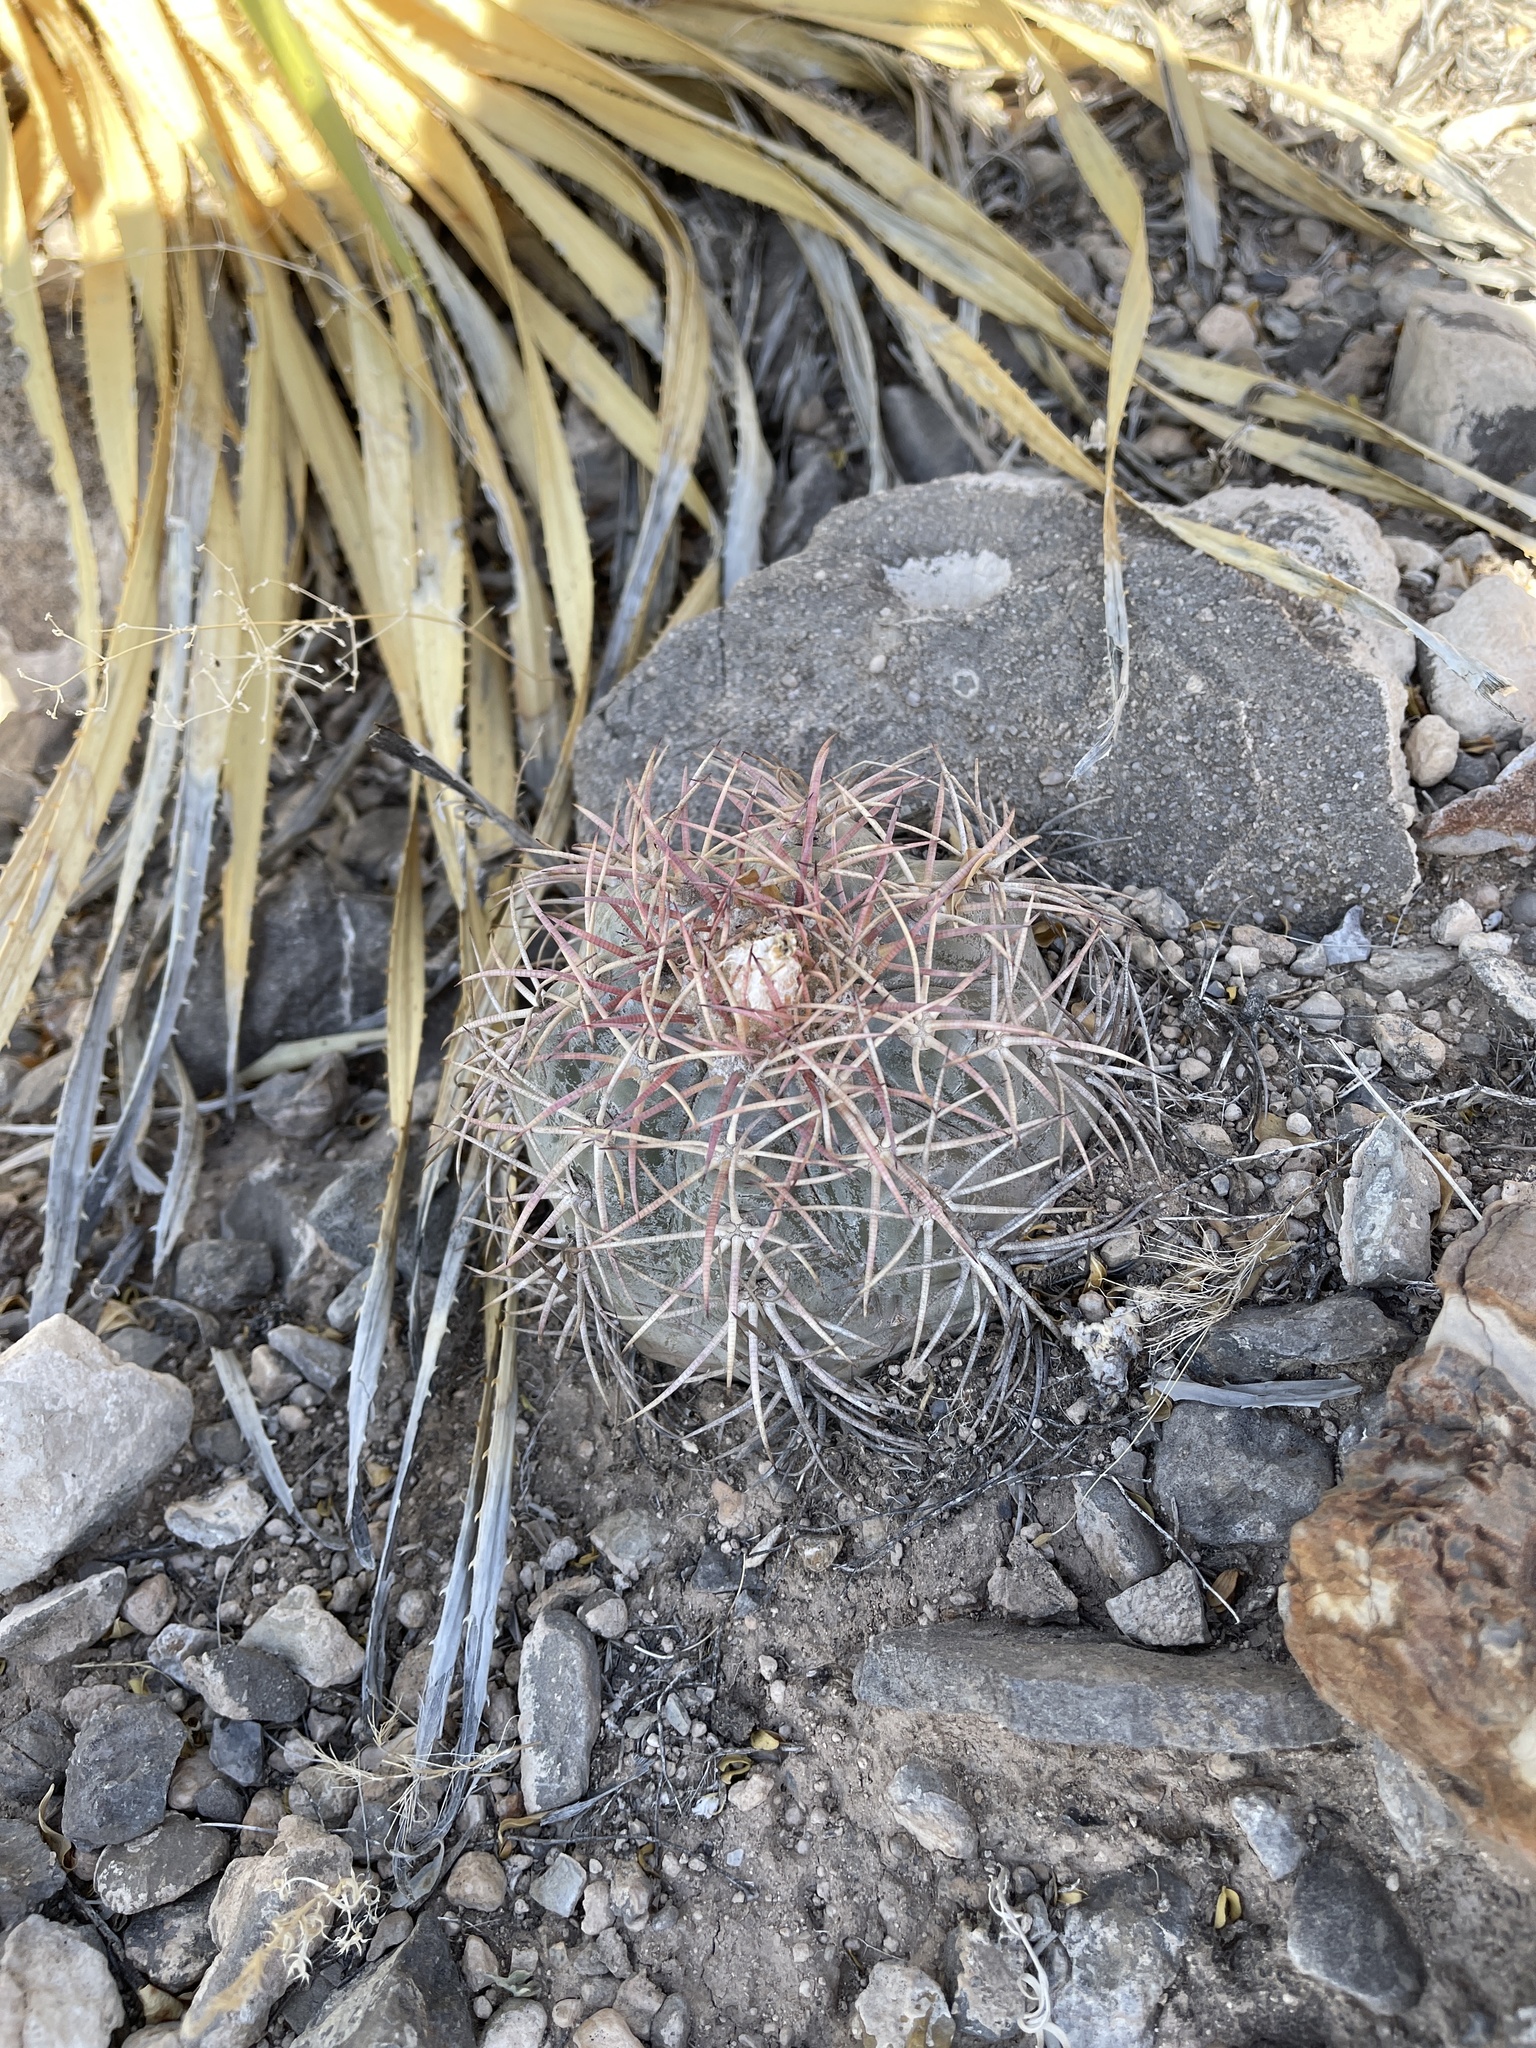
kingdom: Plantae
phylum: Tracheophyta
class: Magnoliopsida
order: Caryophyllales
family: Cactaceae
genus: Echinocactus
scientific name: Echinocactus horizonthalonius
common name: Devilshead
